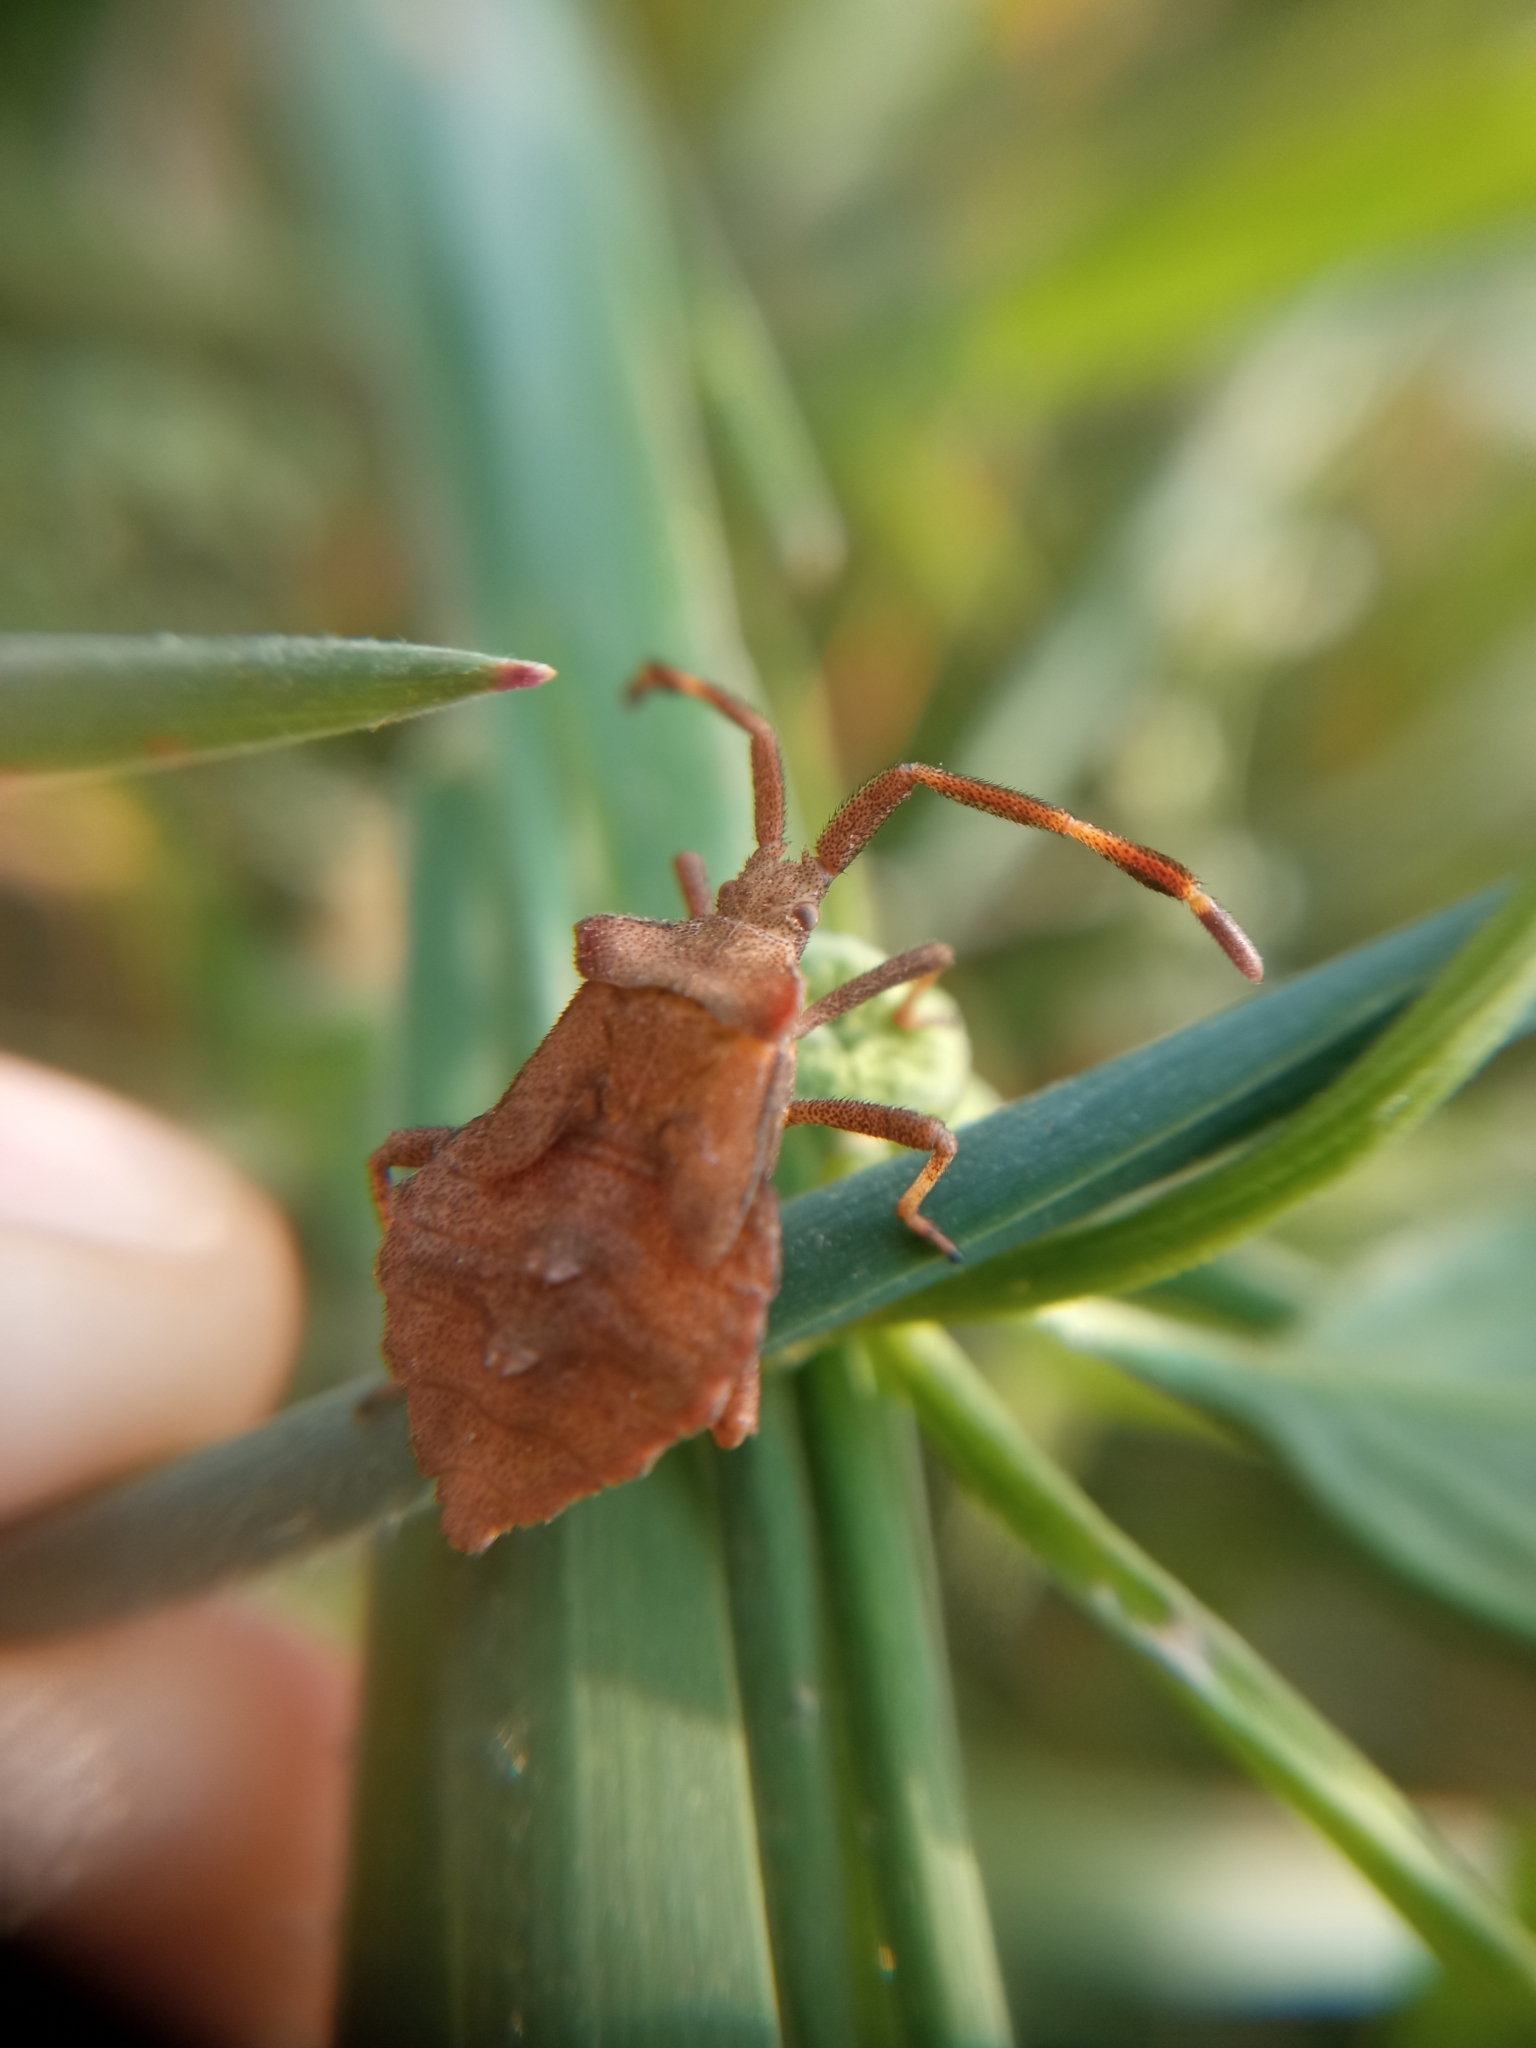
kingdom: Animalia
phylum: Arthropoda
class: Insecta
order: Hemiptera
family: Coreidae
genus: Coreus
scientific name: Coreus marginatus
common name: Dock bug
